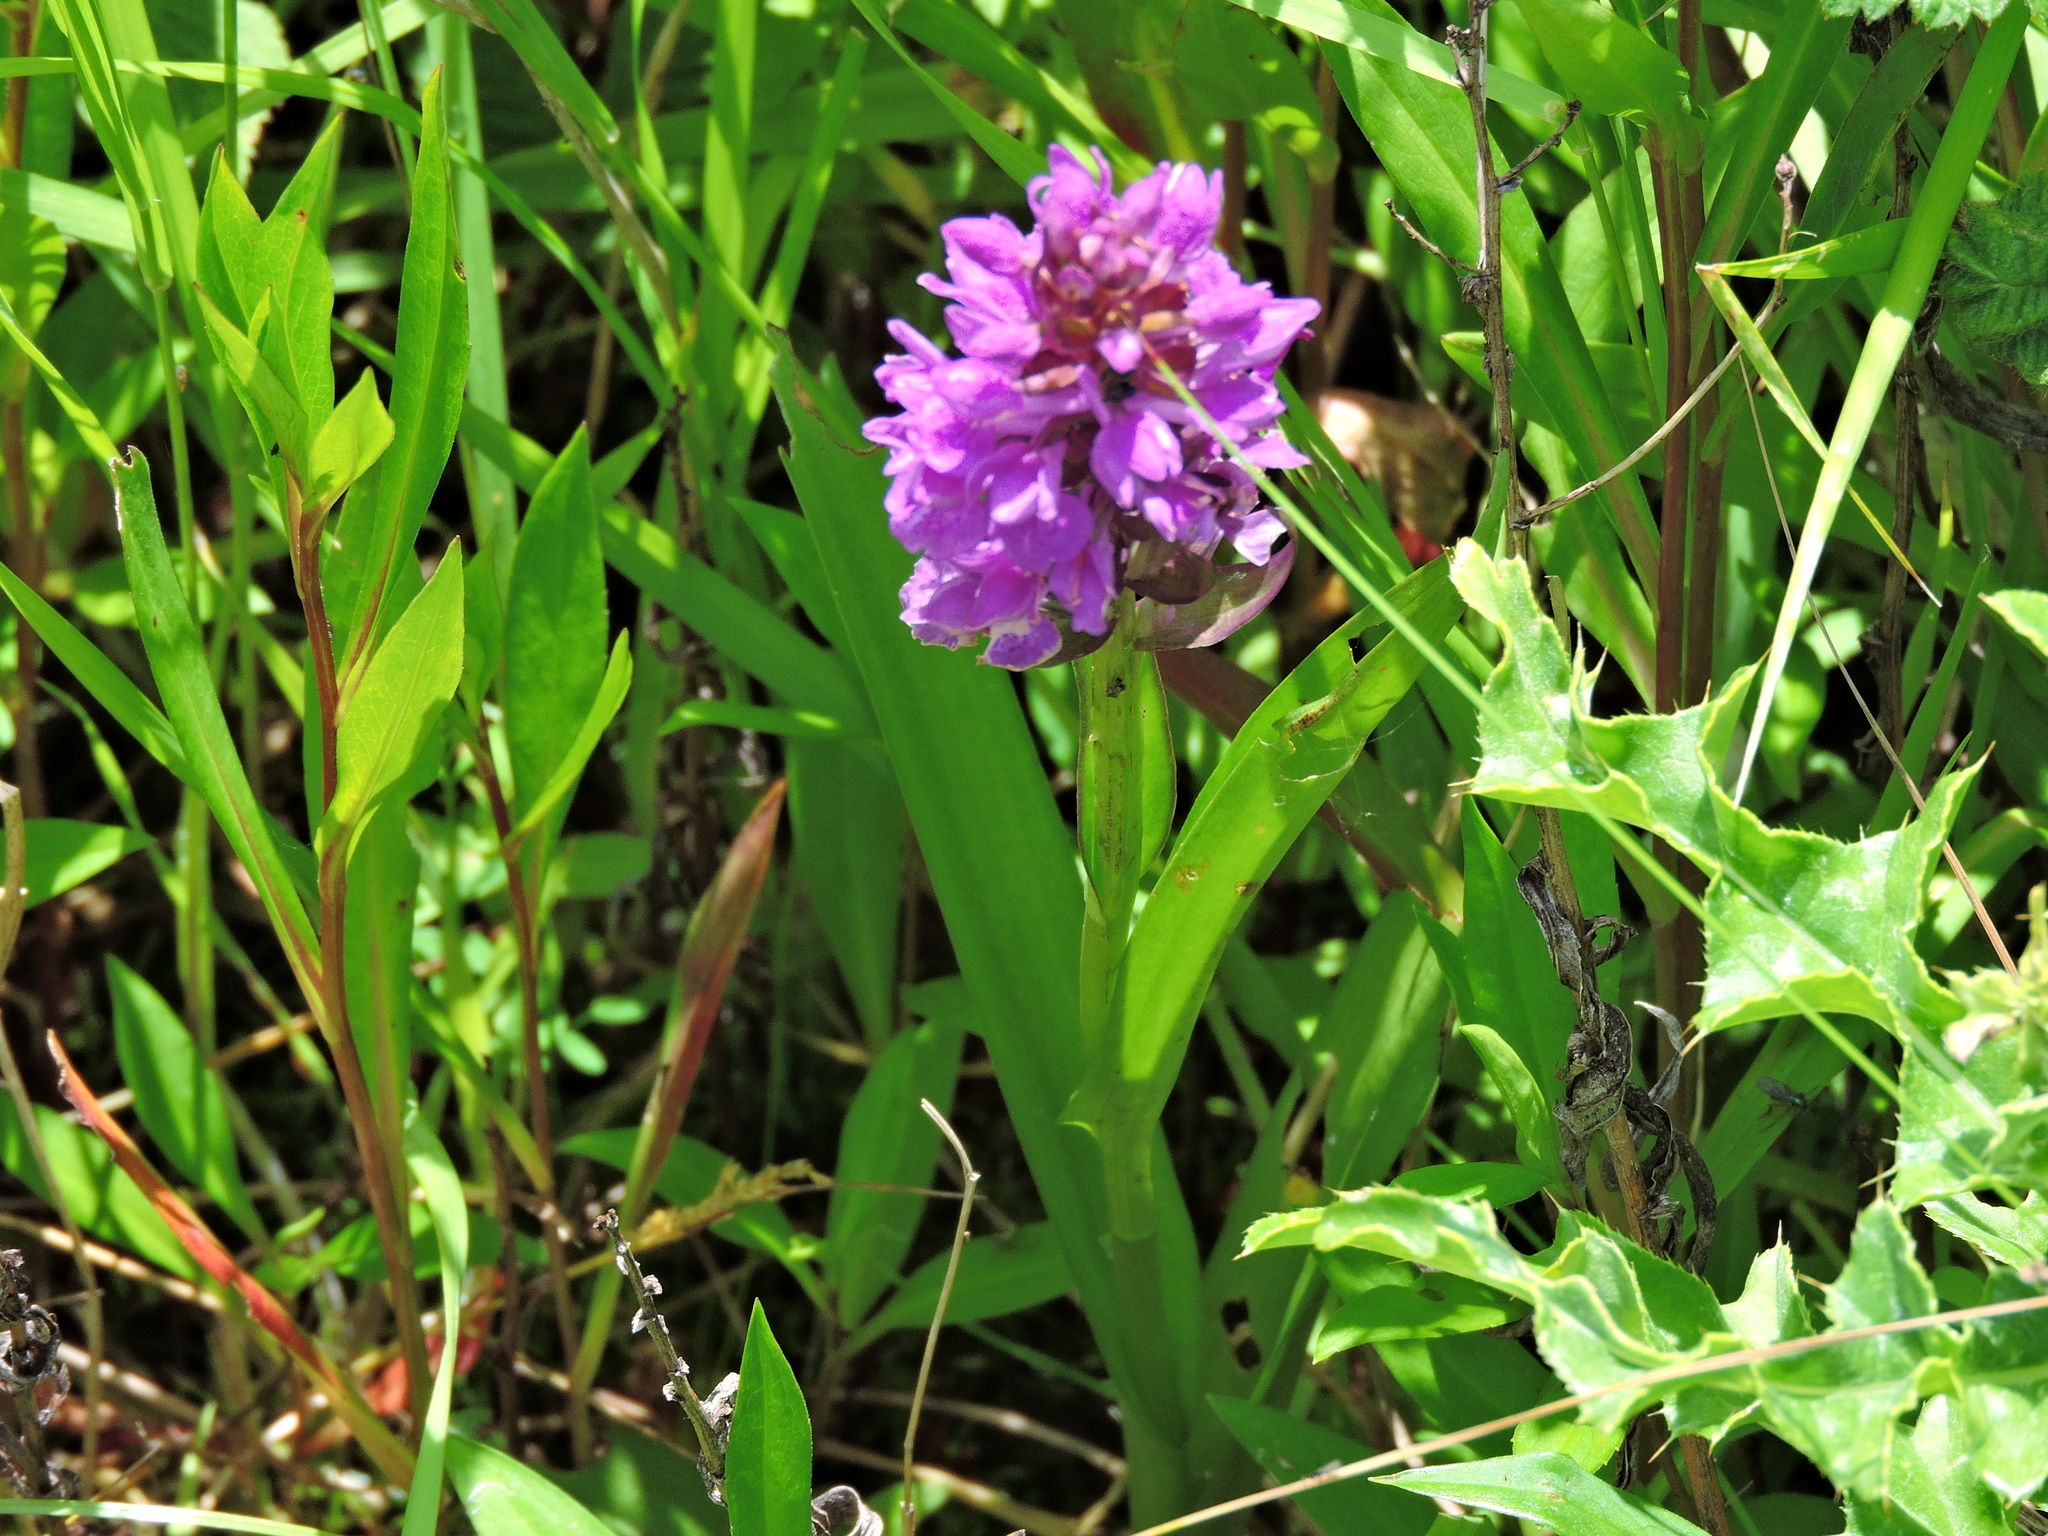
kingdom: Plantae
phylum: Tracheophyta
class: Liliopsida
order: Asparagales
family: Orchidaceae
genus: Dactylorhiza
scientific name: Dactylorhiza majalis
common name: Marsh orchid
